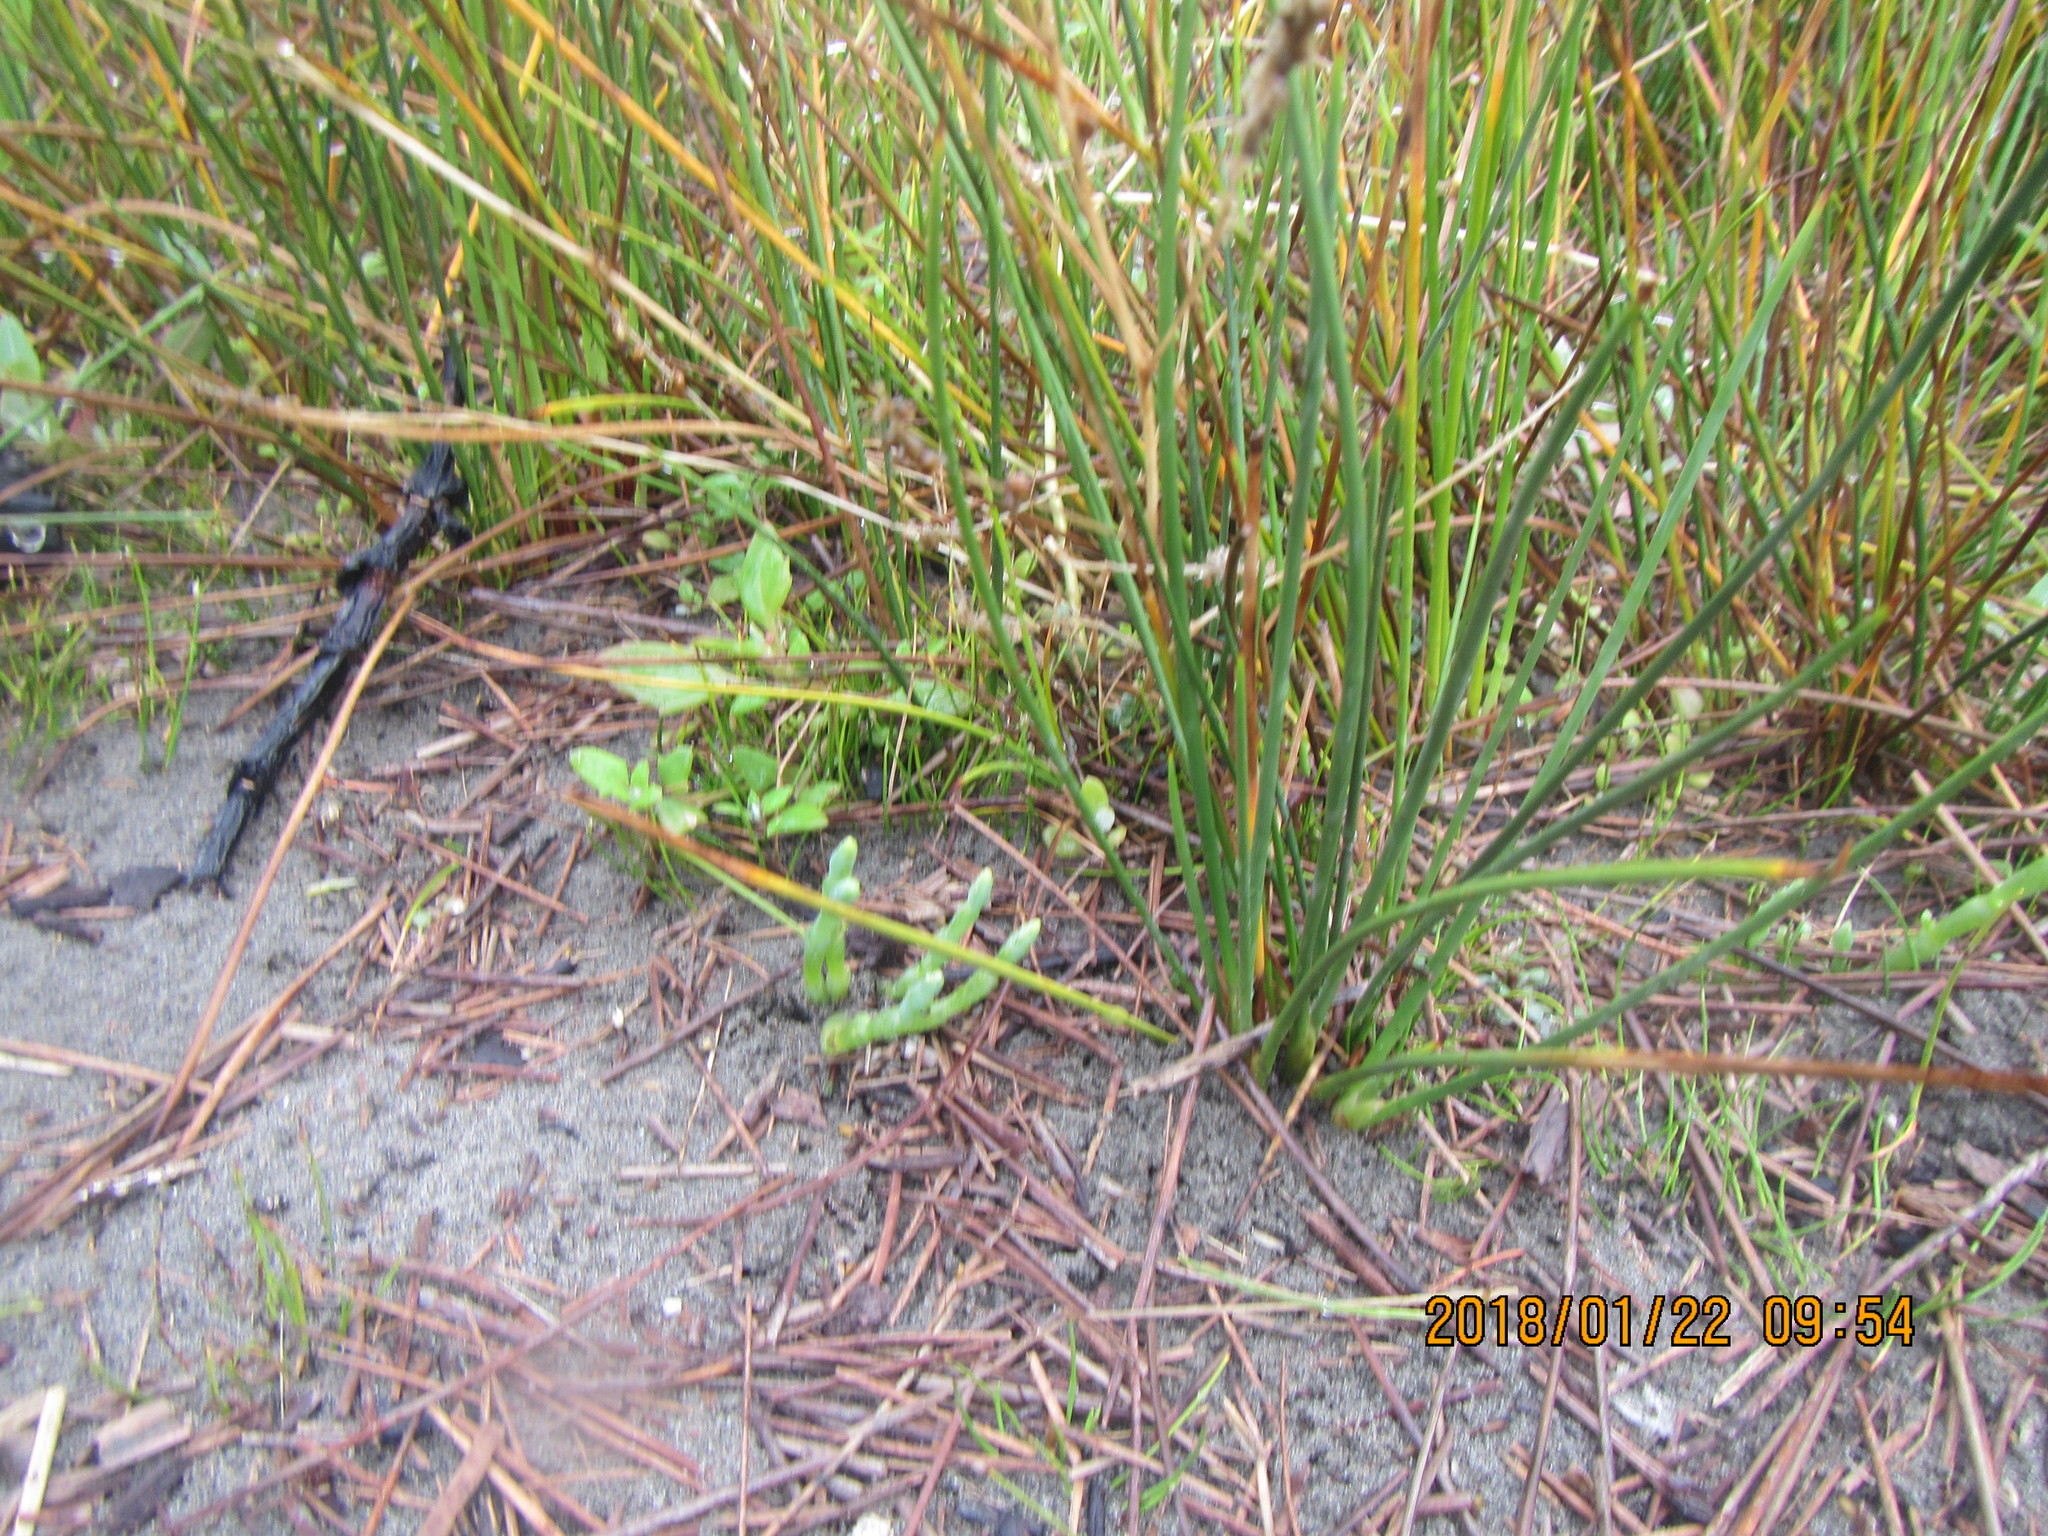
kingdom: Plantae
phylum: Tracheophyta
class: Magnoliopsida
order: Caryophyllales
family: Amaranthaceae
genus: Salicornia
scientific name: Salicornia quinqueflora
